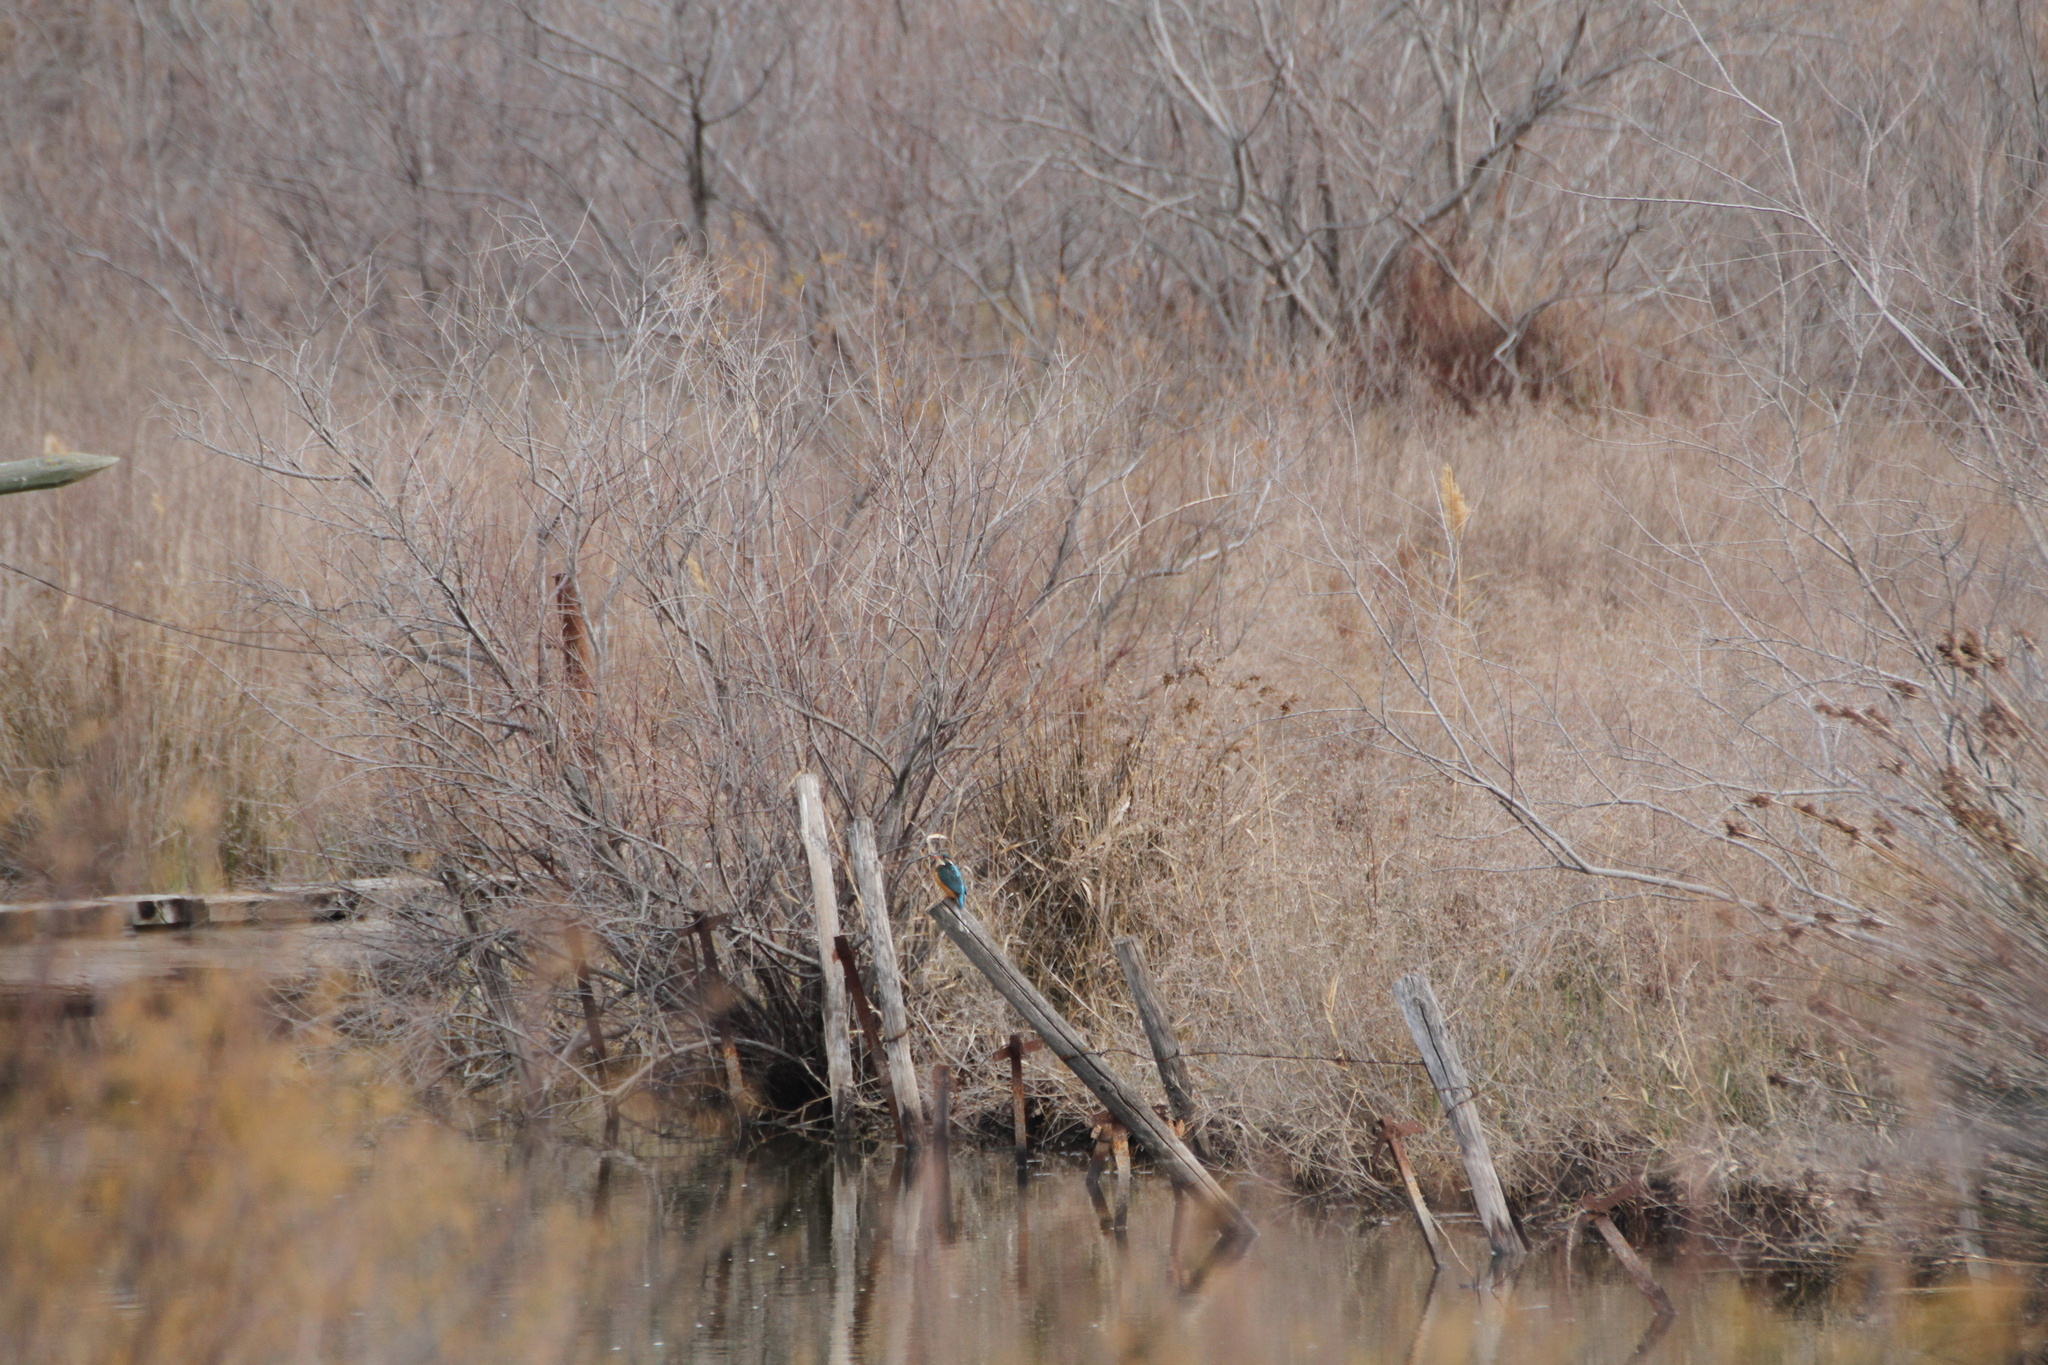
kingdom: Animalia
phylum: Chordata
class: Aves
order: Coraciiformes
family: Alcedinidae
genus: Alcedo
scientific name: Alcedo atthis
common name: Common kingfisher
